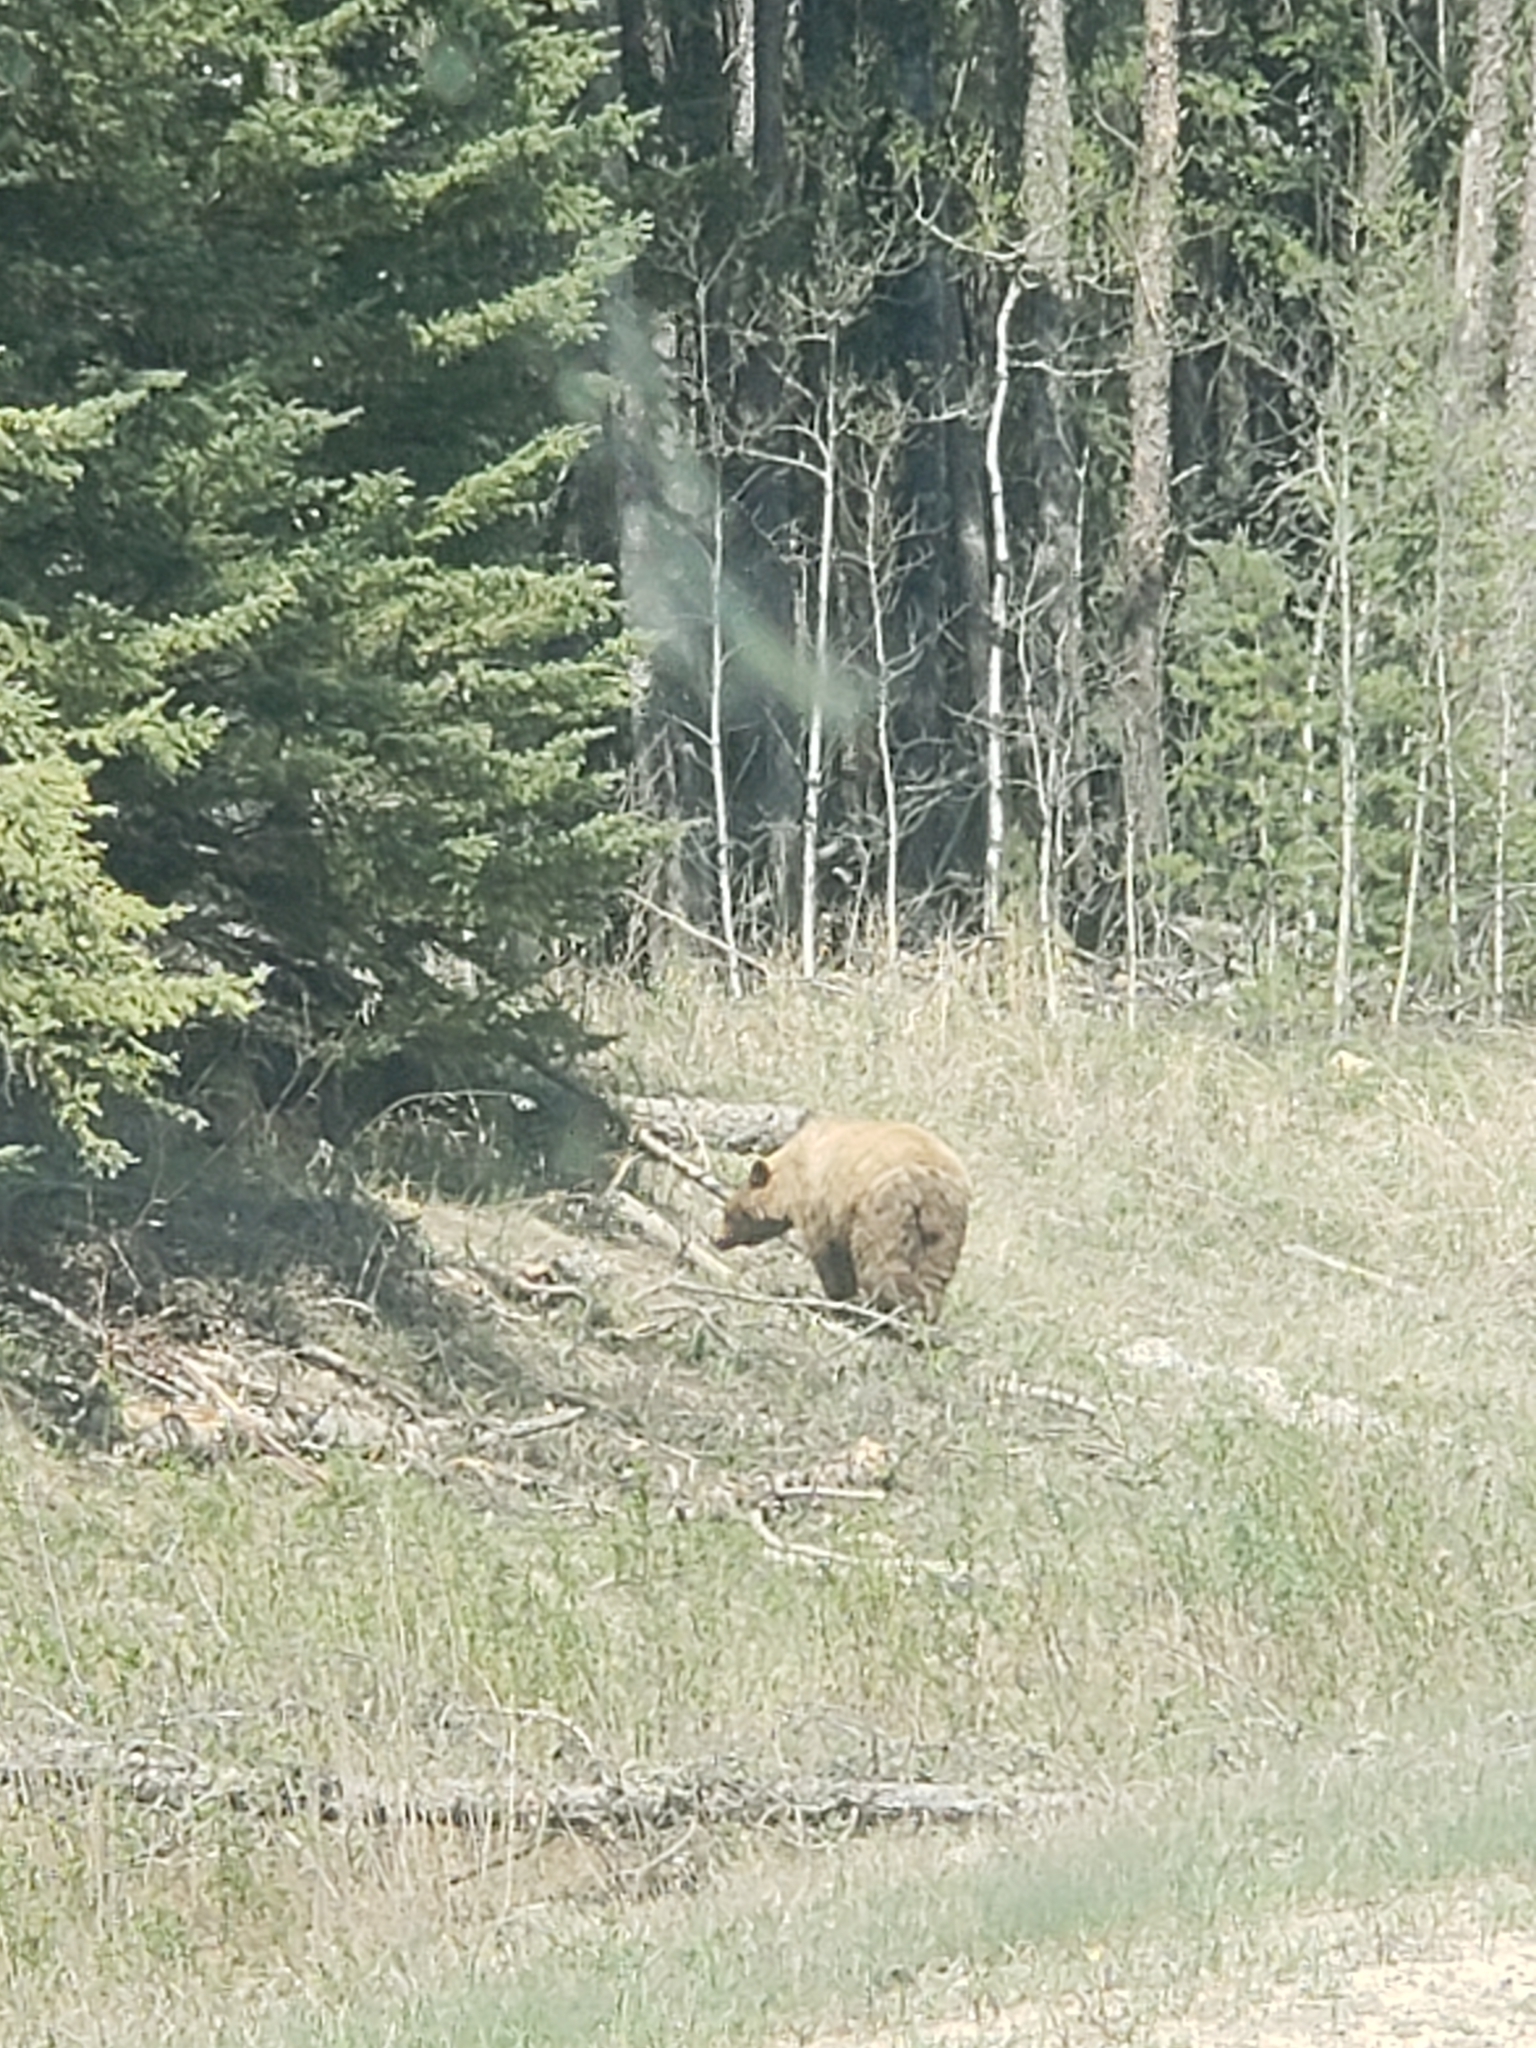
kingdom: Animalia
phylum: Chordata
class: Mammalia
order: Carnivora
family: Ursidae
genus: Ursus
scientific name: Ursus americanus
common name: American black bear
